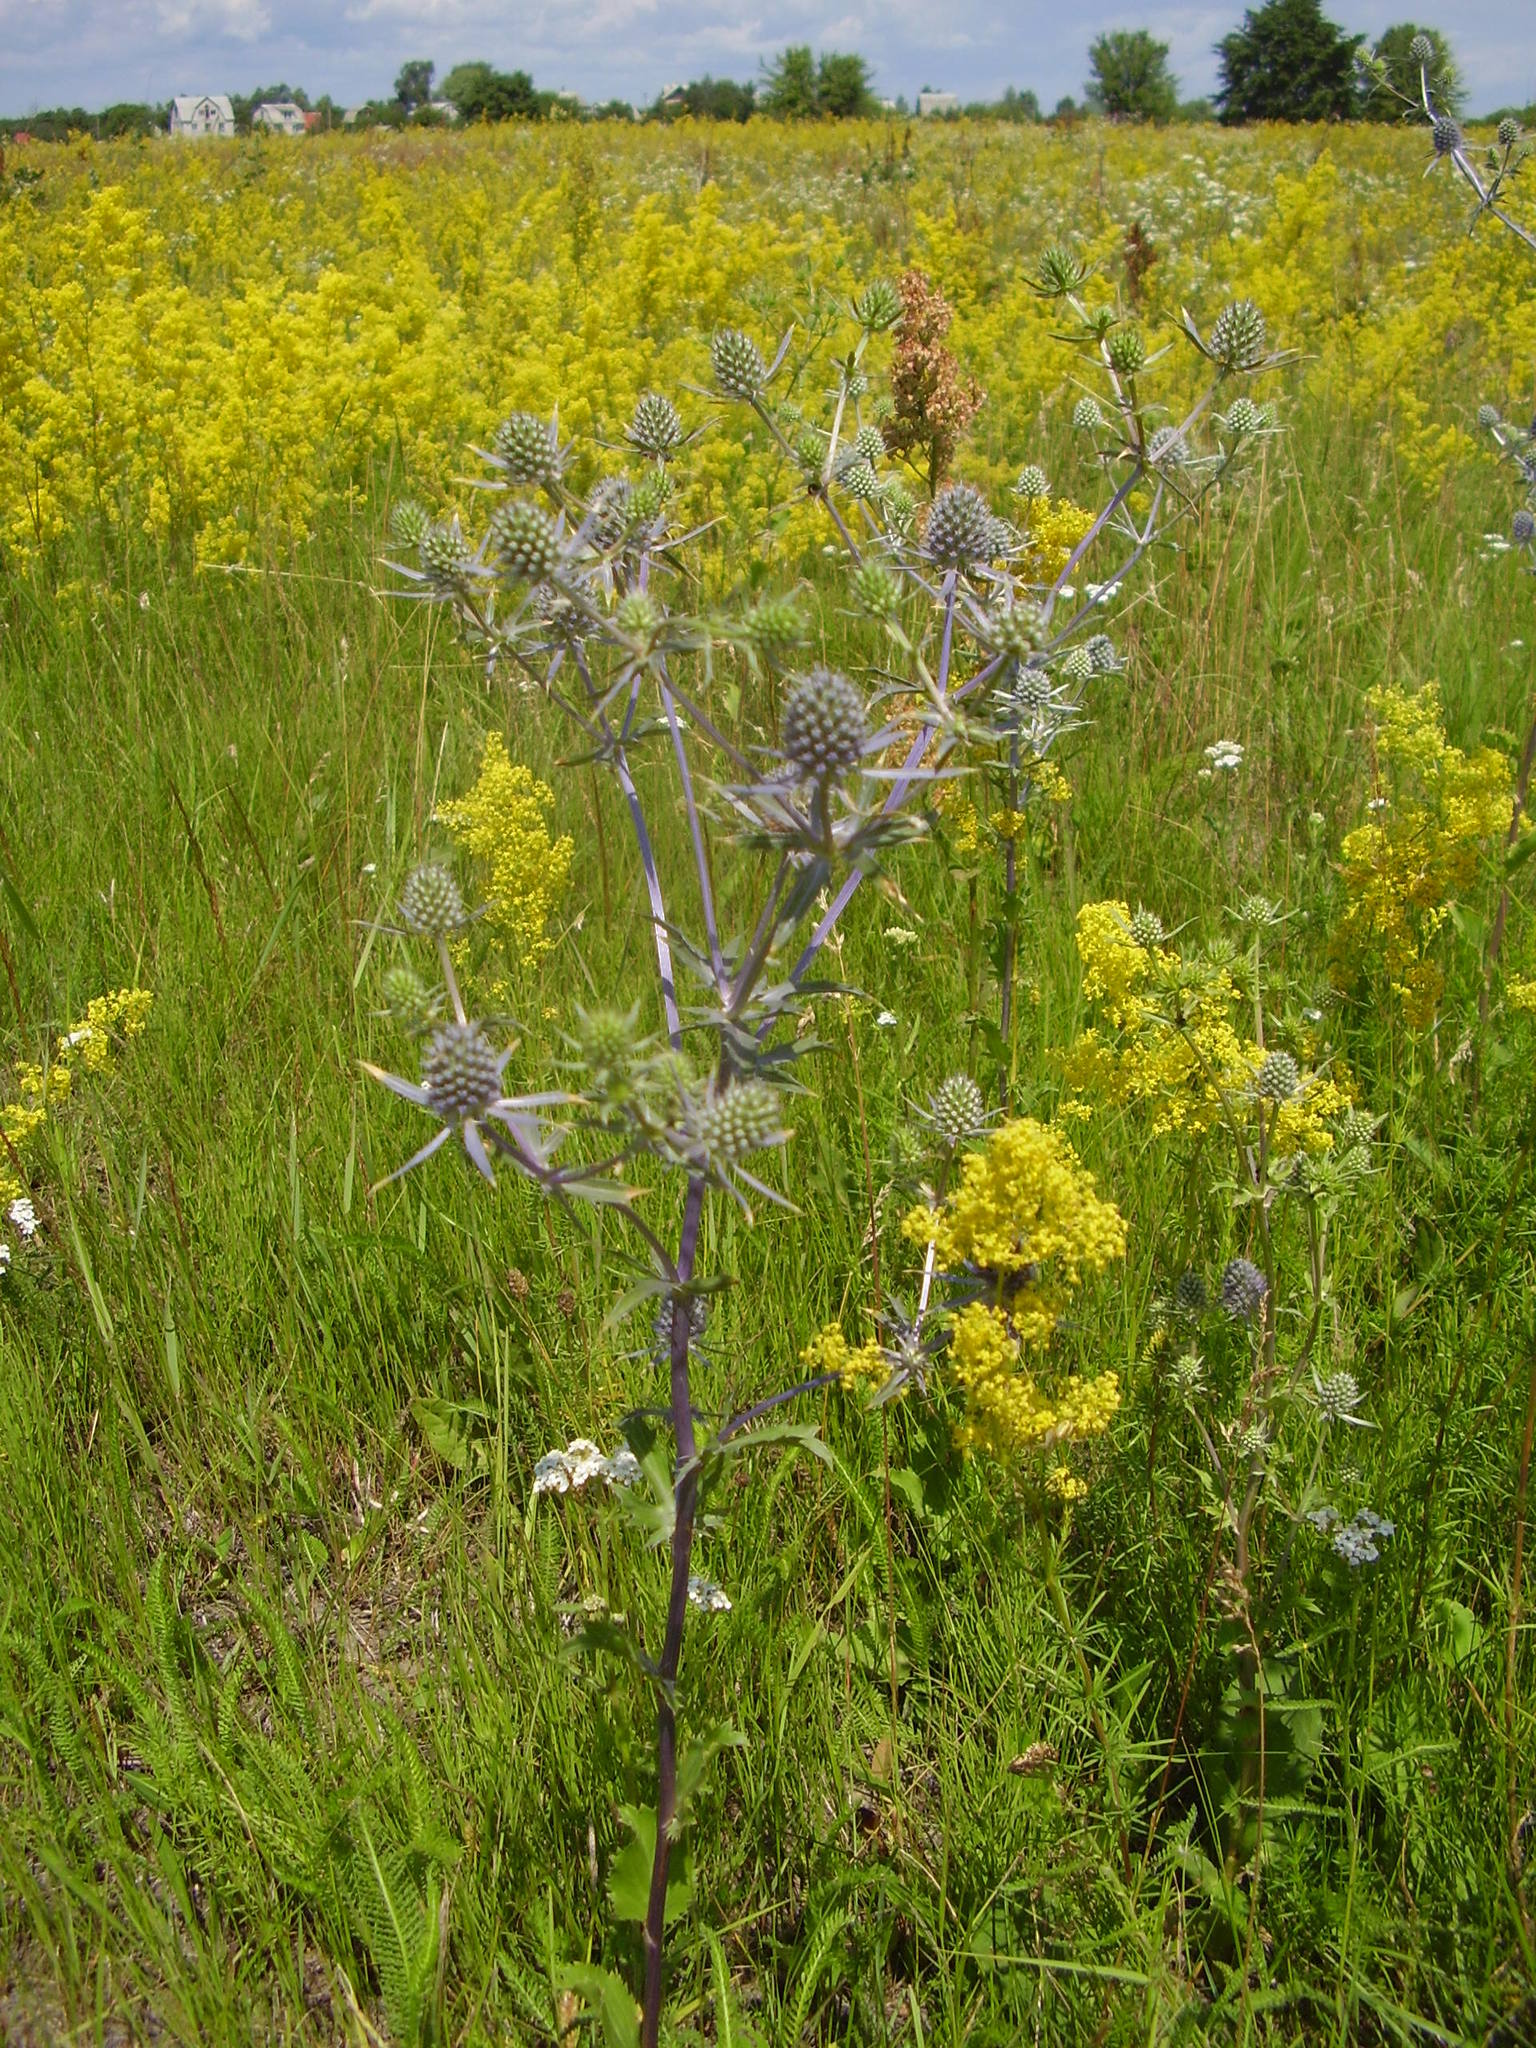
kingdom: Plantae
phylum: Tracheophyta
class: Magnoliopsida
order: Apiales
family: Apiaceae
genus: Eryngium
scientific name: Eryngium planum
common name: Blue eryngo
